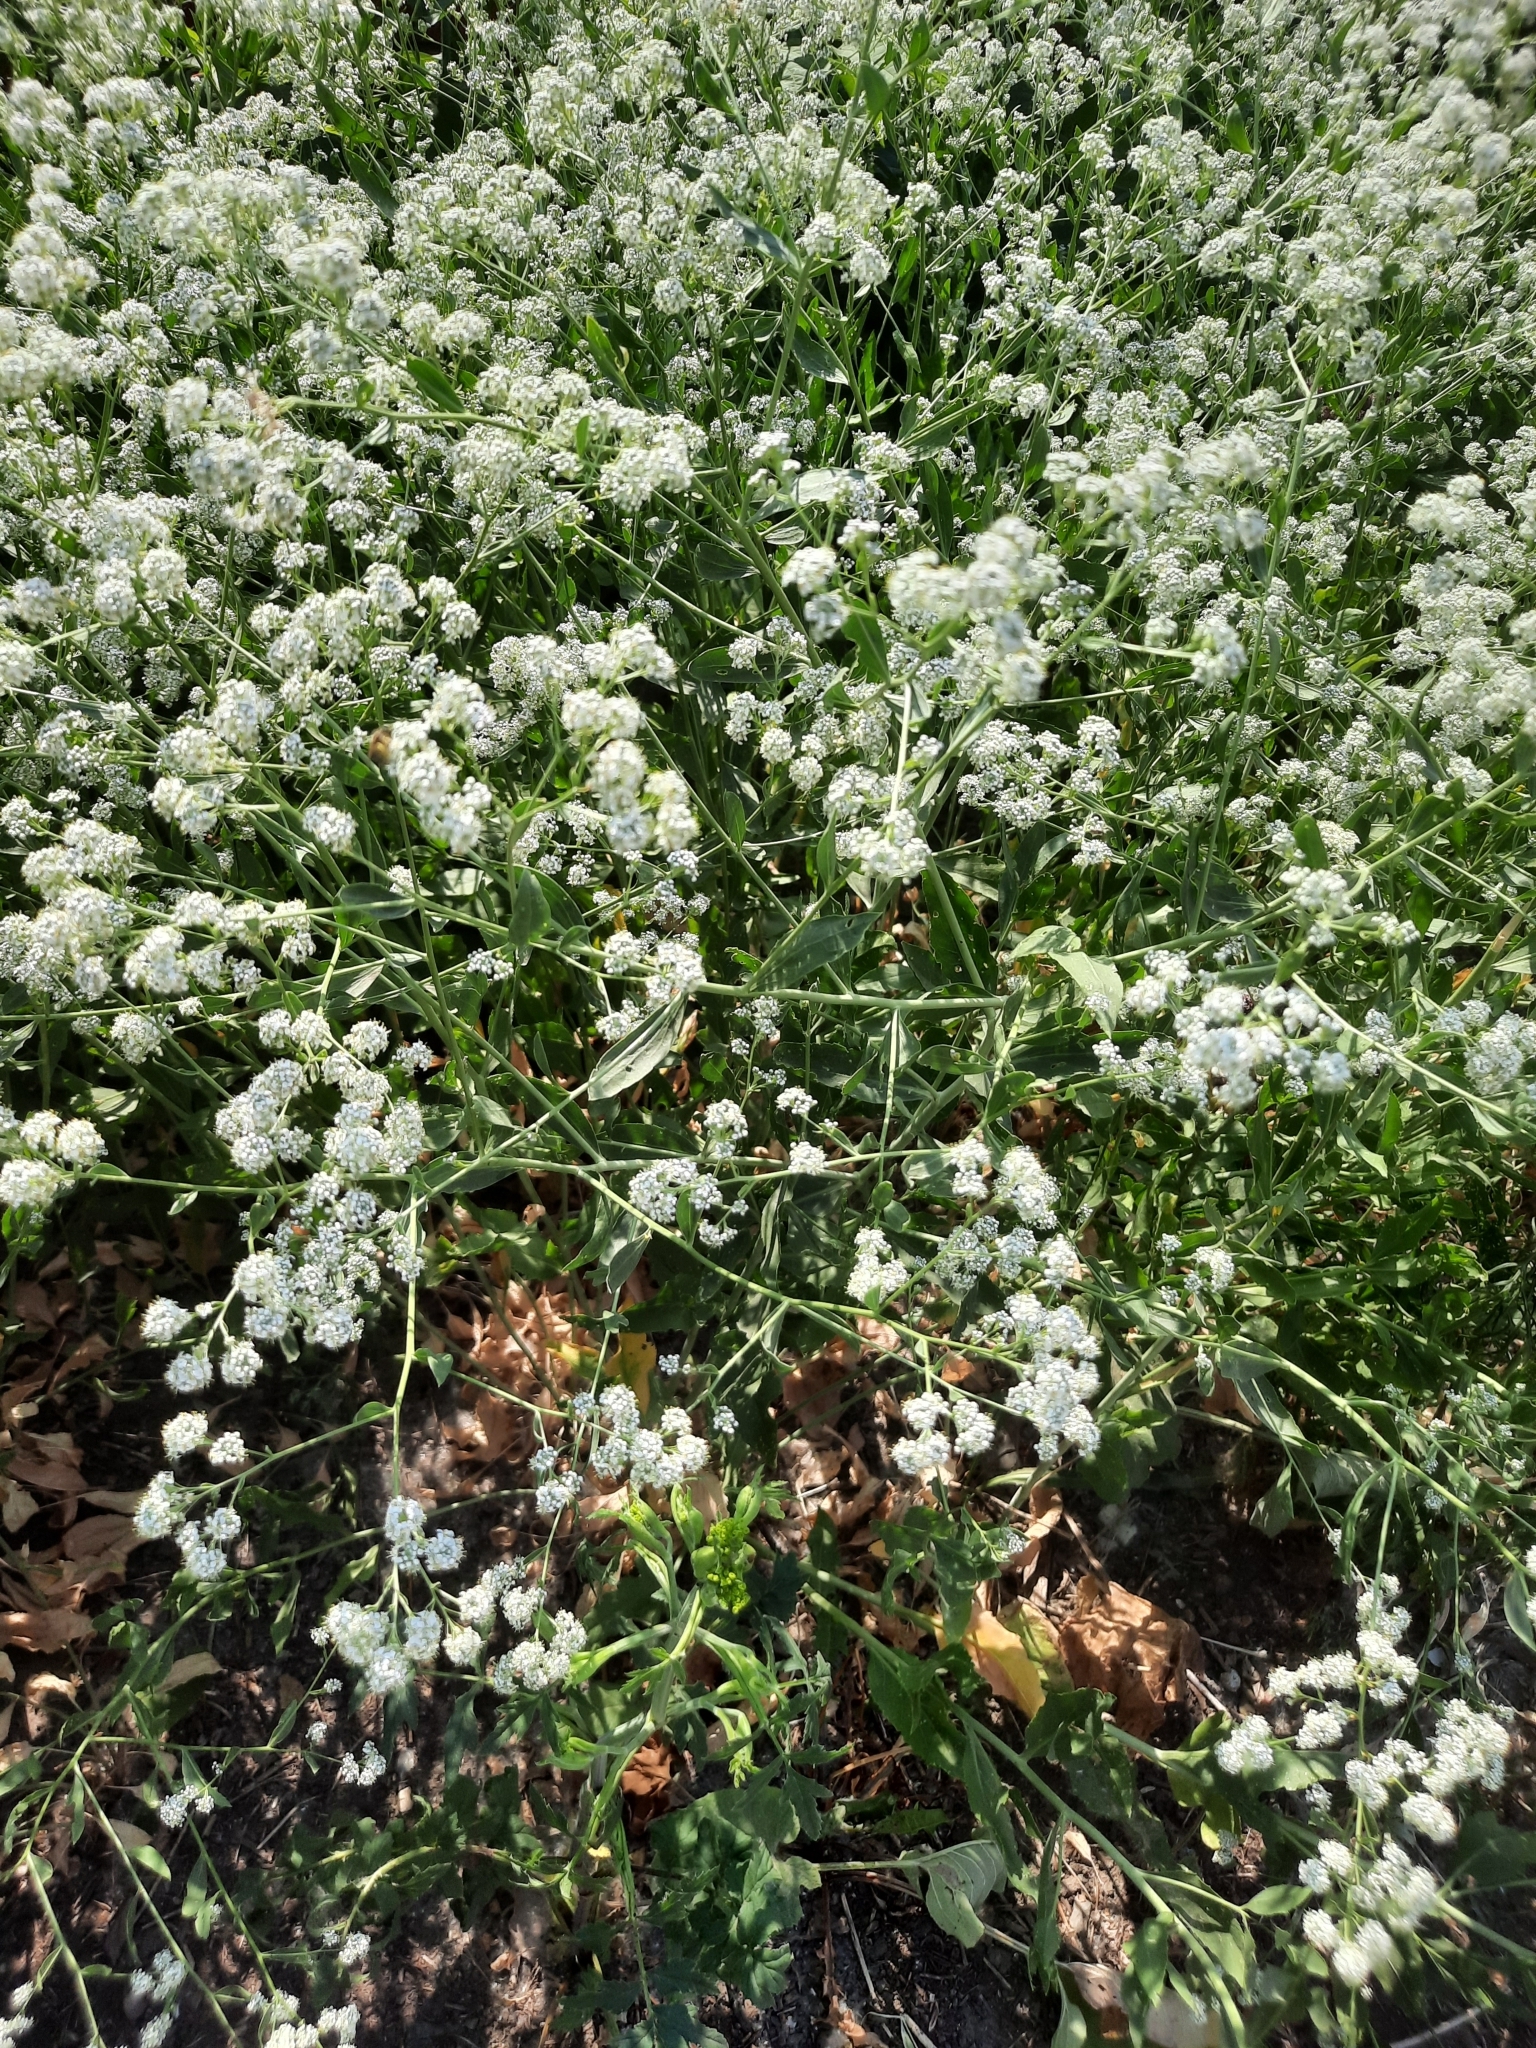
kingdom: Plantae
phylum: Tracheophyta
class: Magnoliopsida
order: Brassicales
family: Brassicaceae
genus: Lepidium
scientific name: Lepidium latifolium
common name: Dittander
